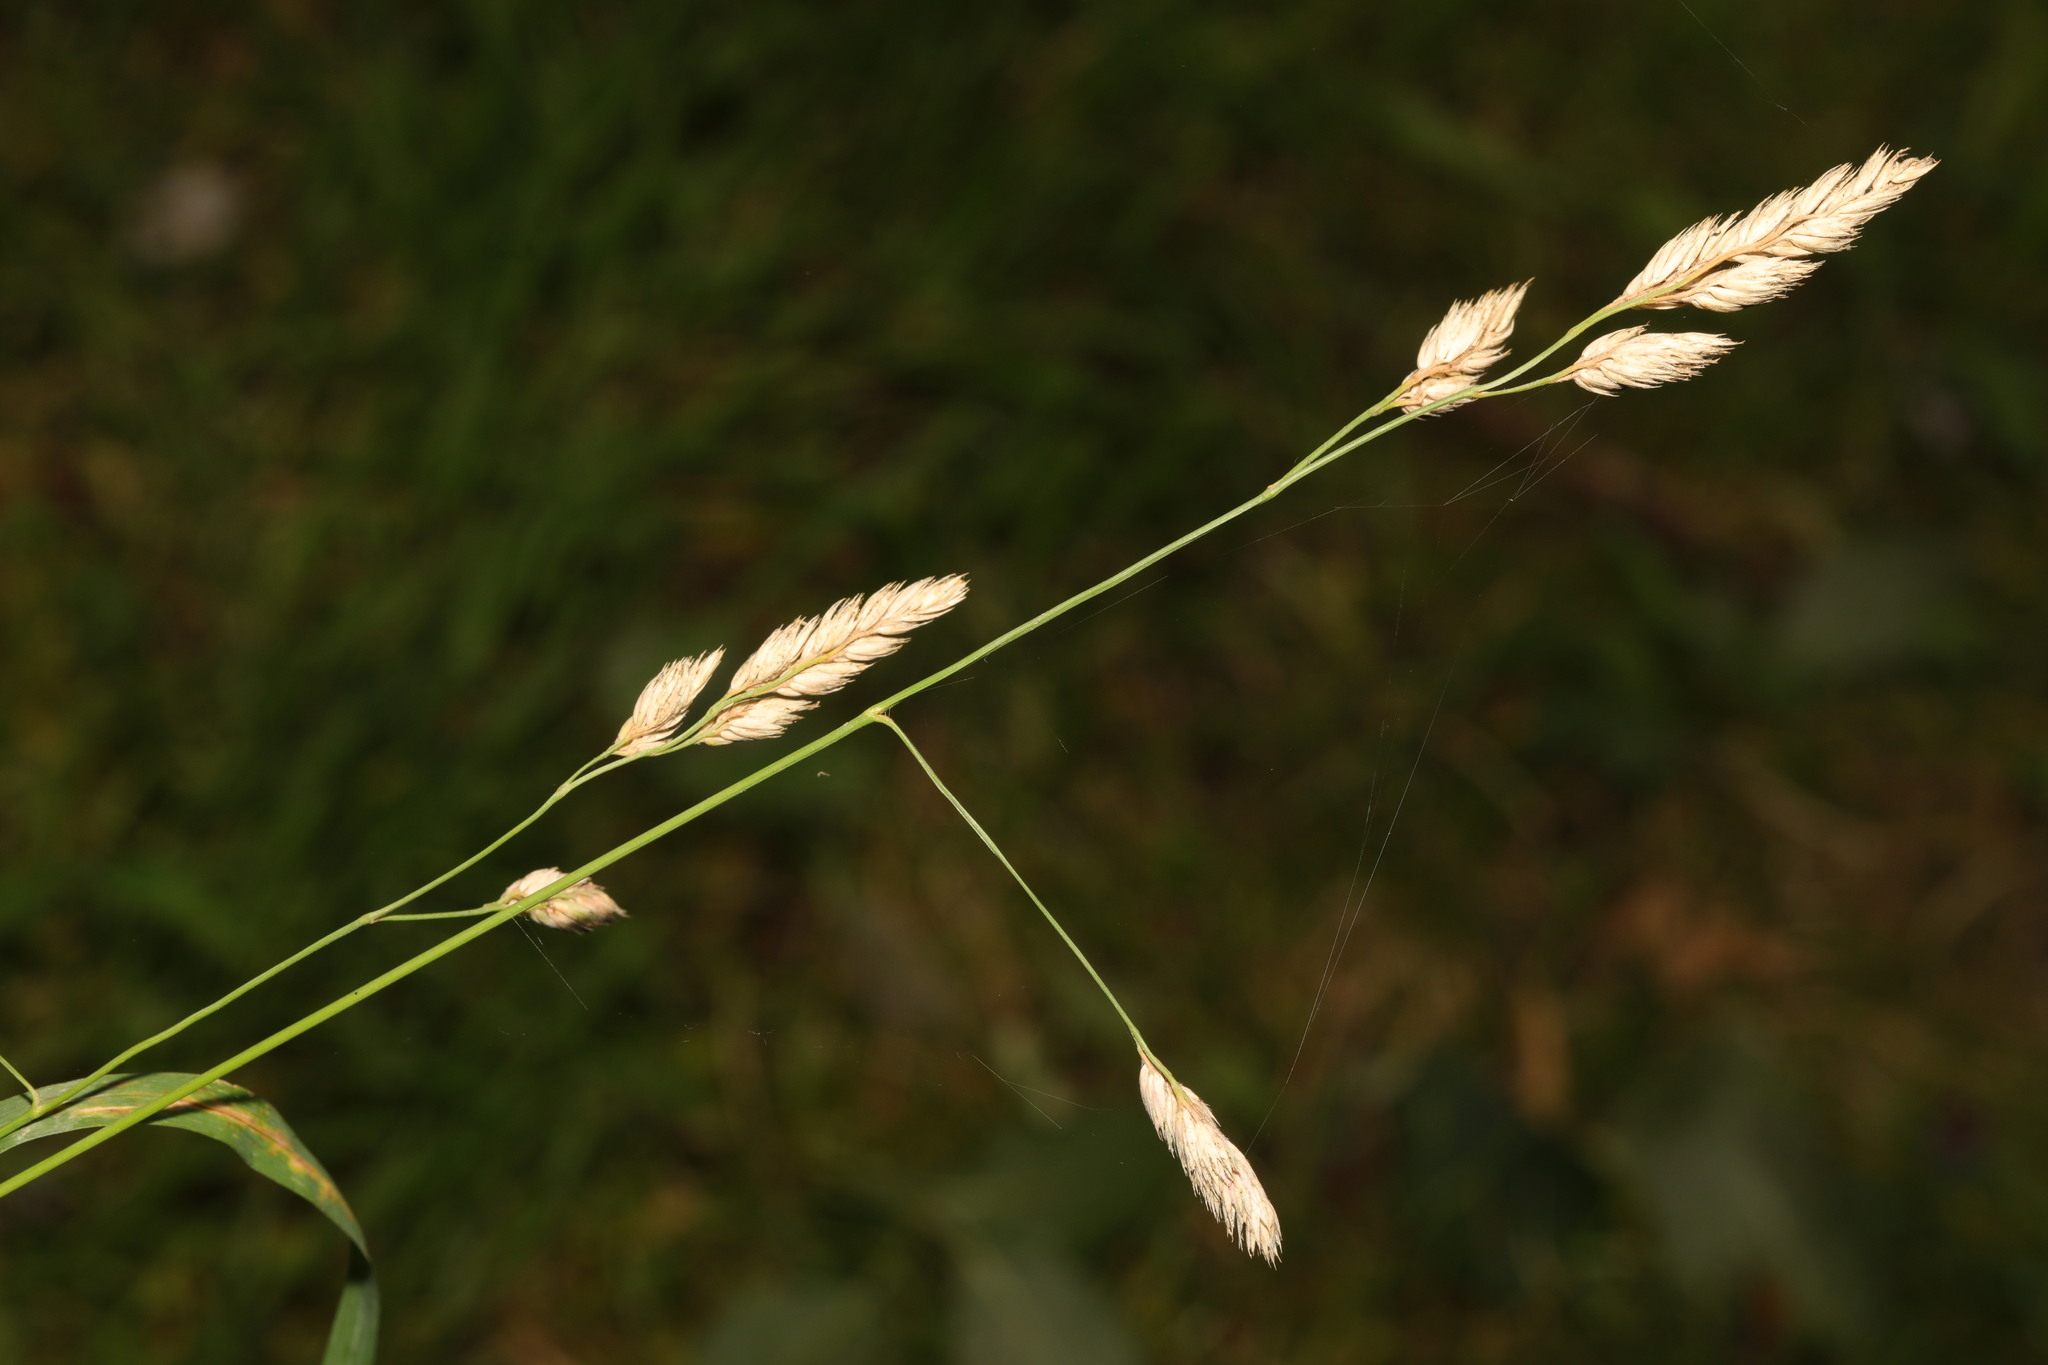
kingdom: Plantae
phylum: Tracheophyta
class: Liliopsida
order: Poales
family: Poaceae
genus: Dactylis
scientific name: Dactylis glomerata
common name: Orchardgrass
